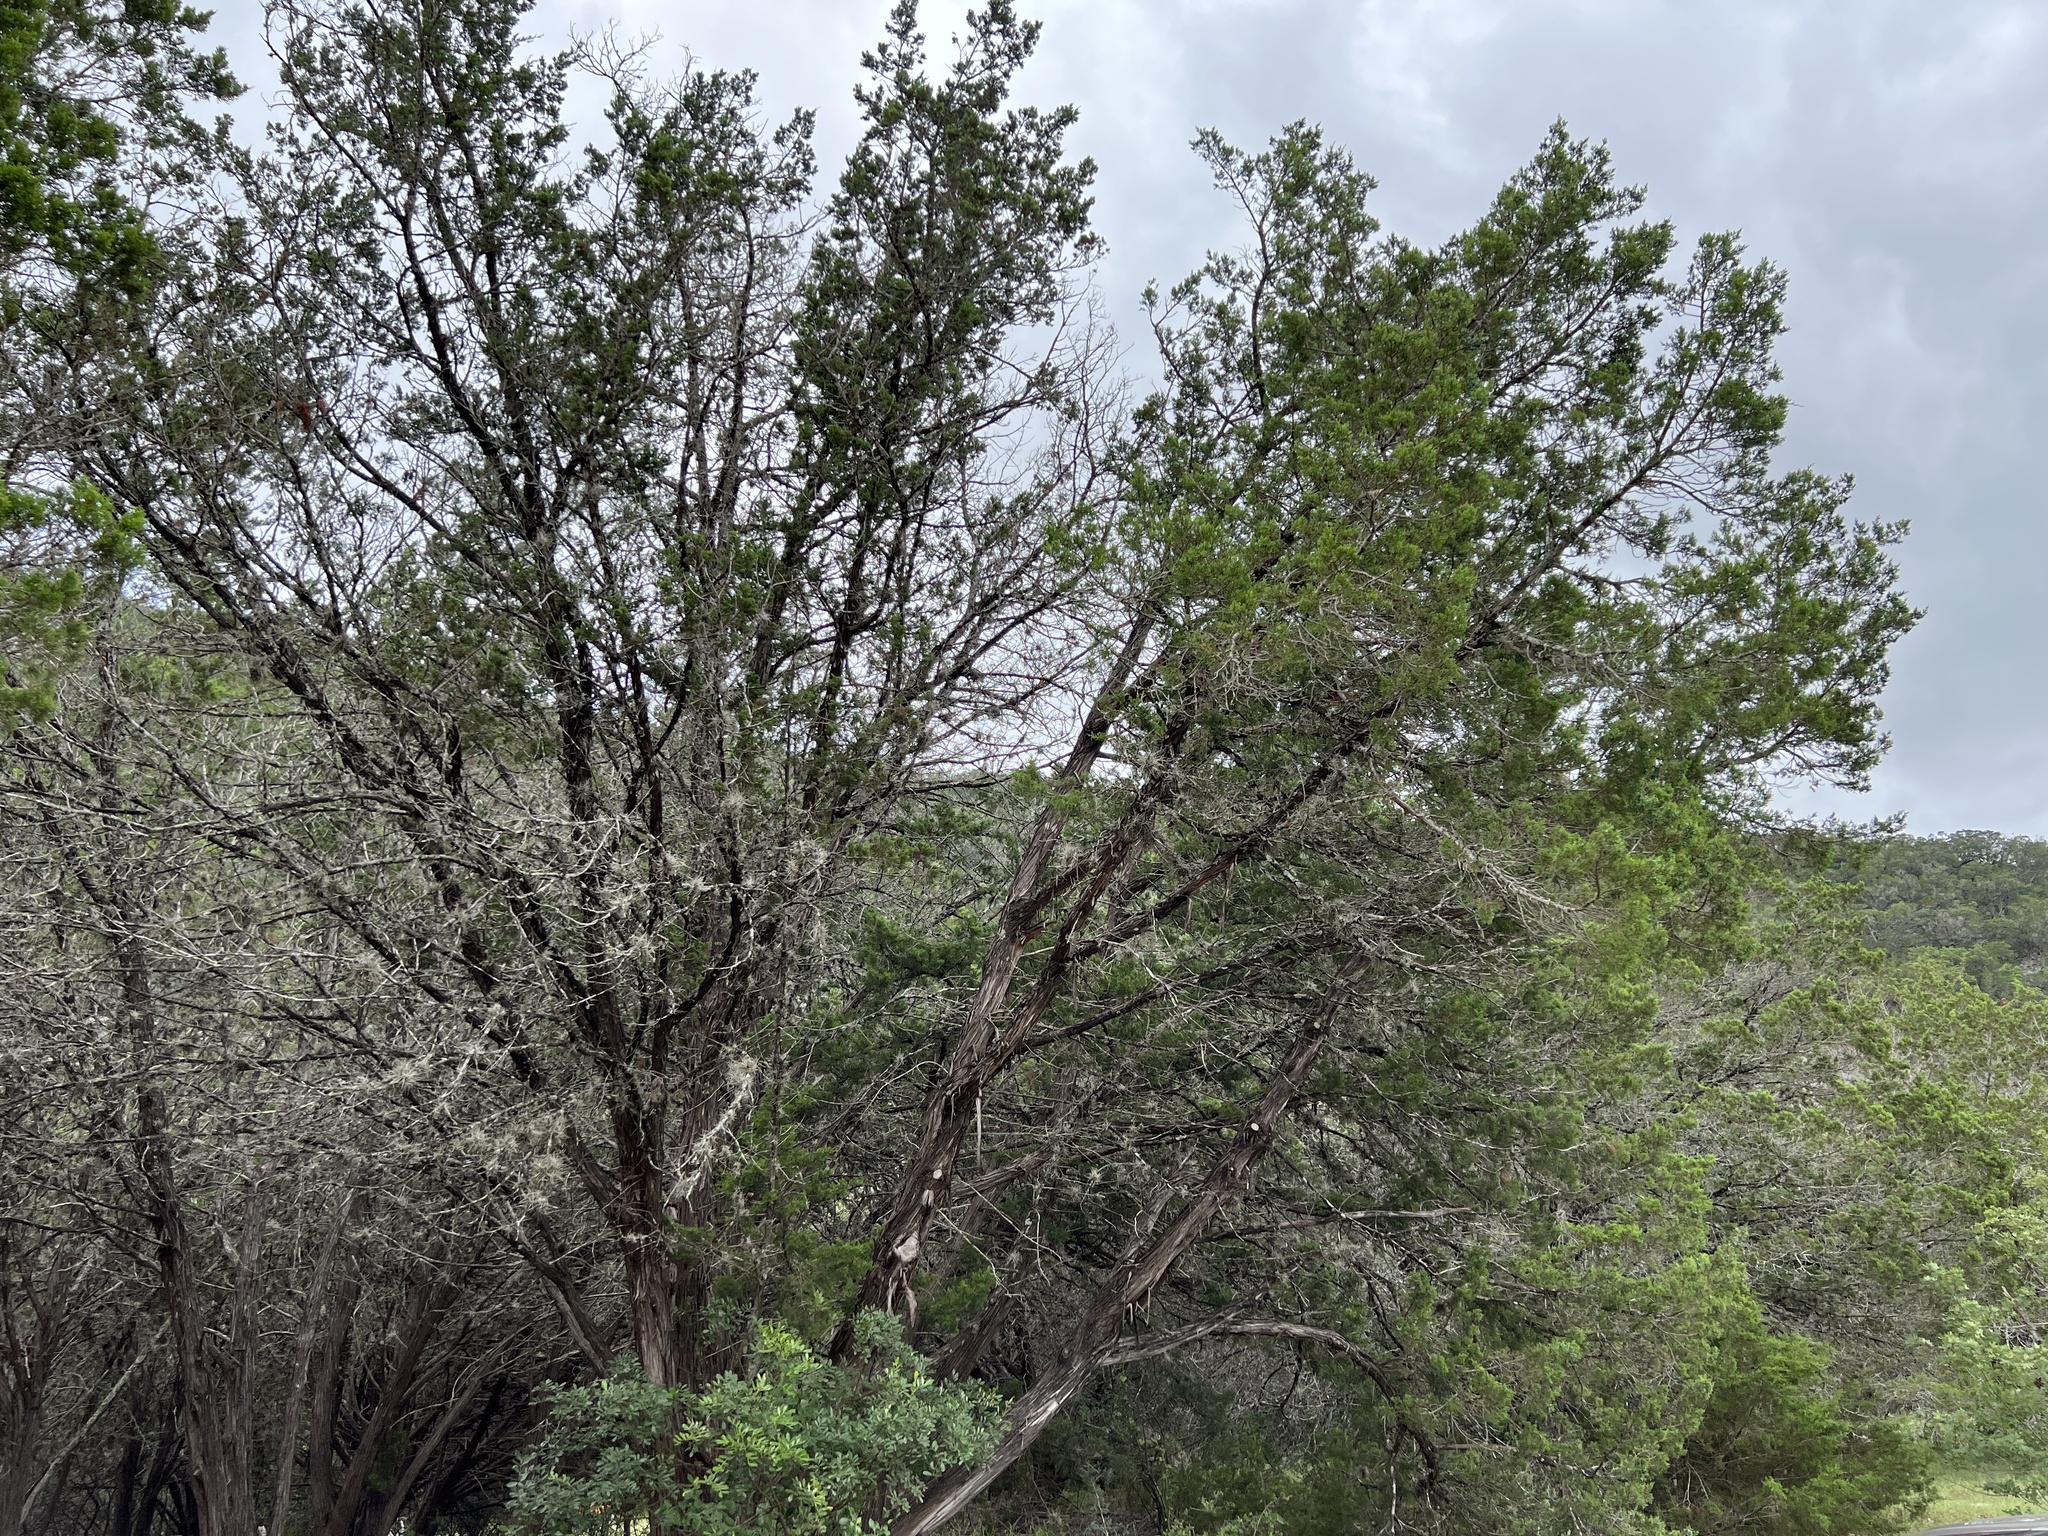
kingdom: Plantae
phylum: Tracheophyta
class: Pinopsida
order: Pinales
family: Cupressaceae
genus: Juniperus
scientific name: Juniperus ashei
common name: Mexican juniper
